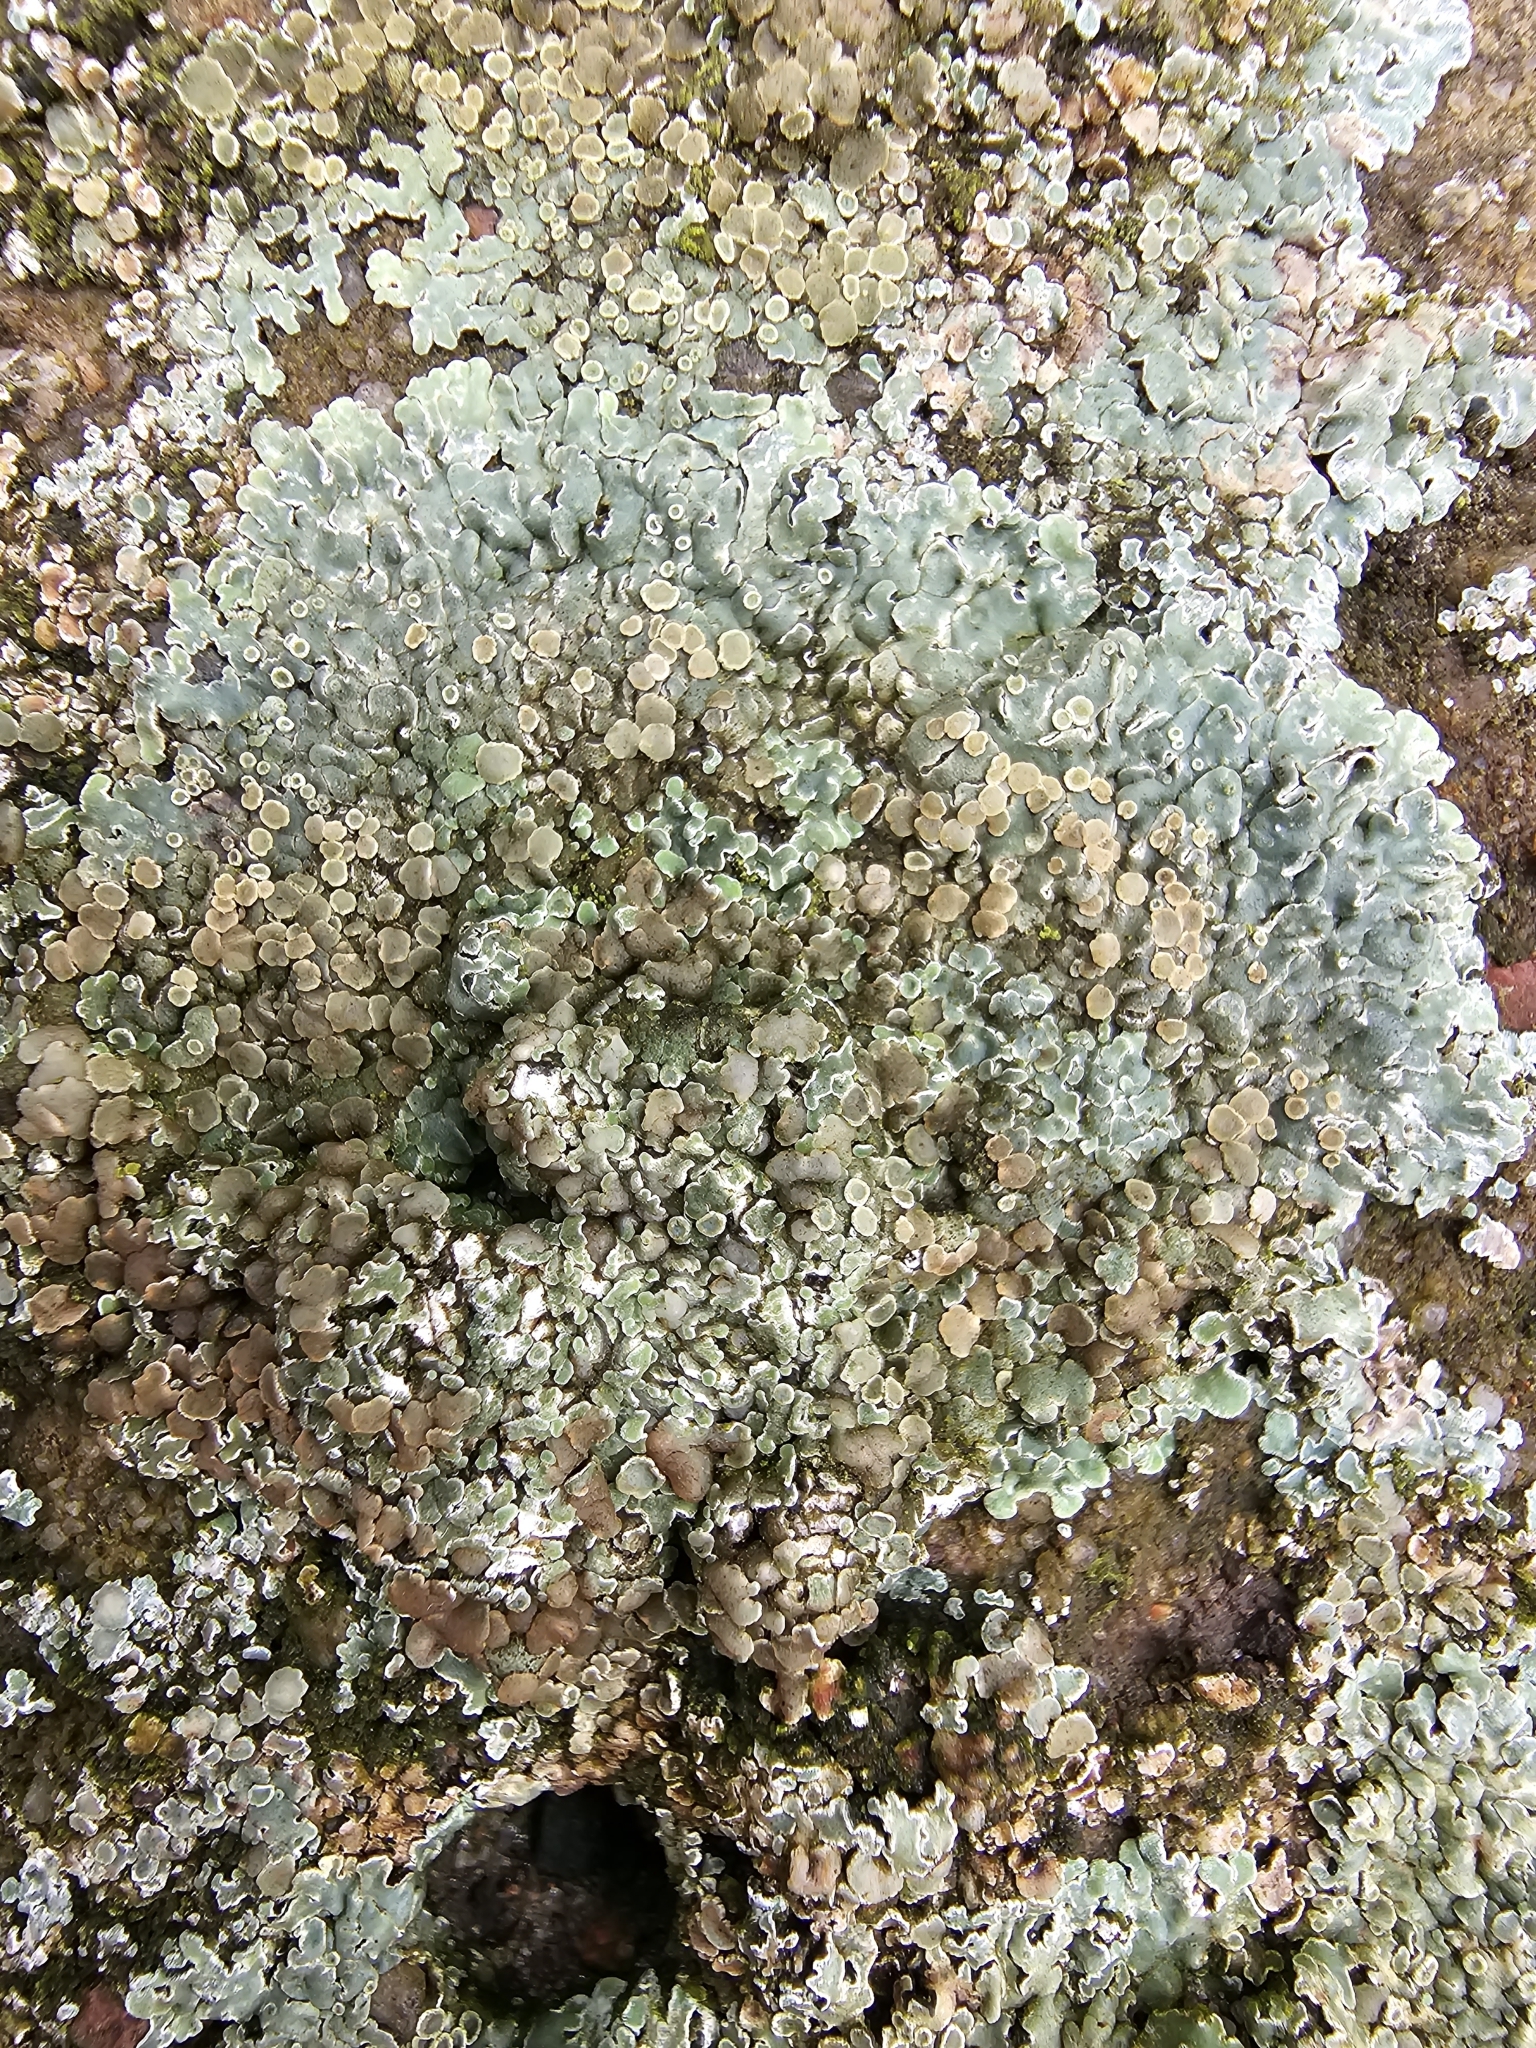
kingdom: Fungi
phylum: Ascomycota
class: Lecanoromycetes
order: Lecanorales
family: Lecanoraceae
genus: Protoparmeliopsis
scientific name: Protoparmeliopsis muralis
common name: Stonewall rim lichen
